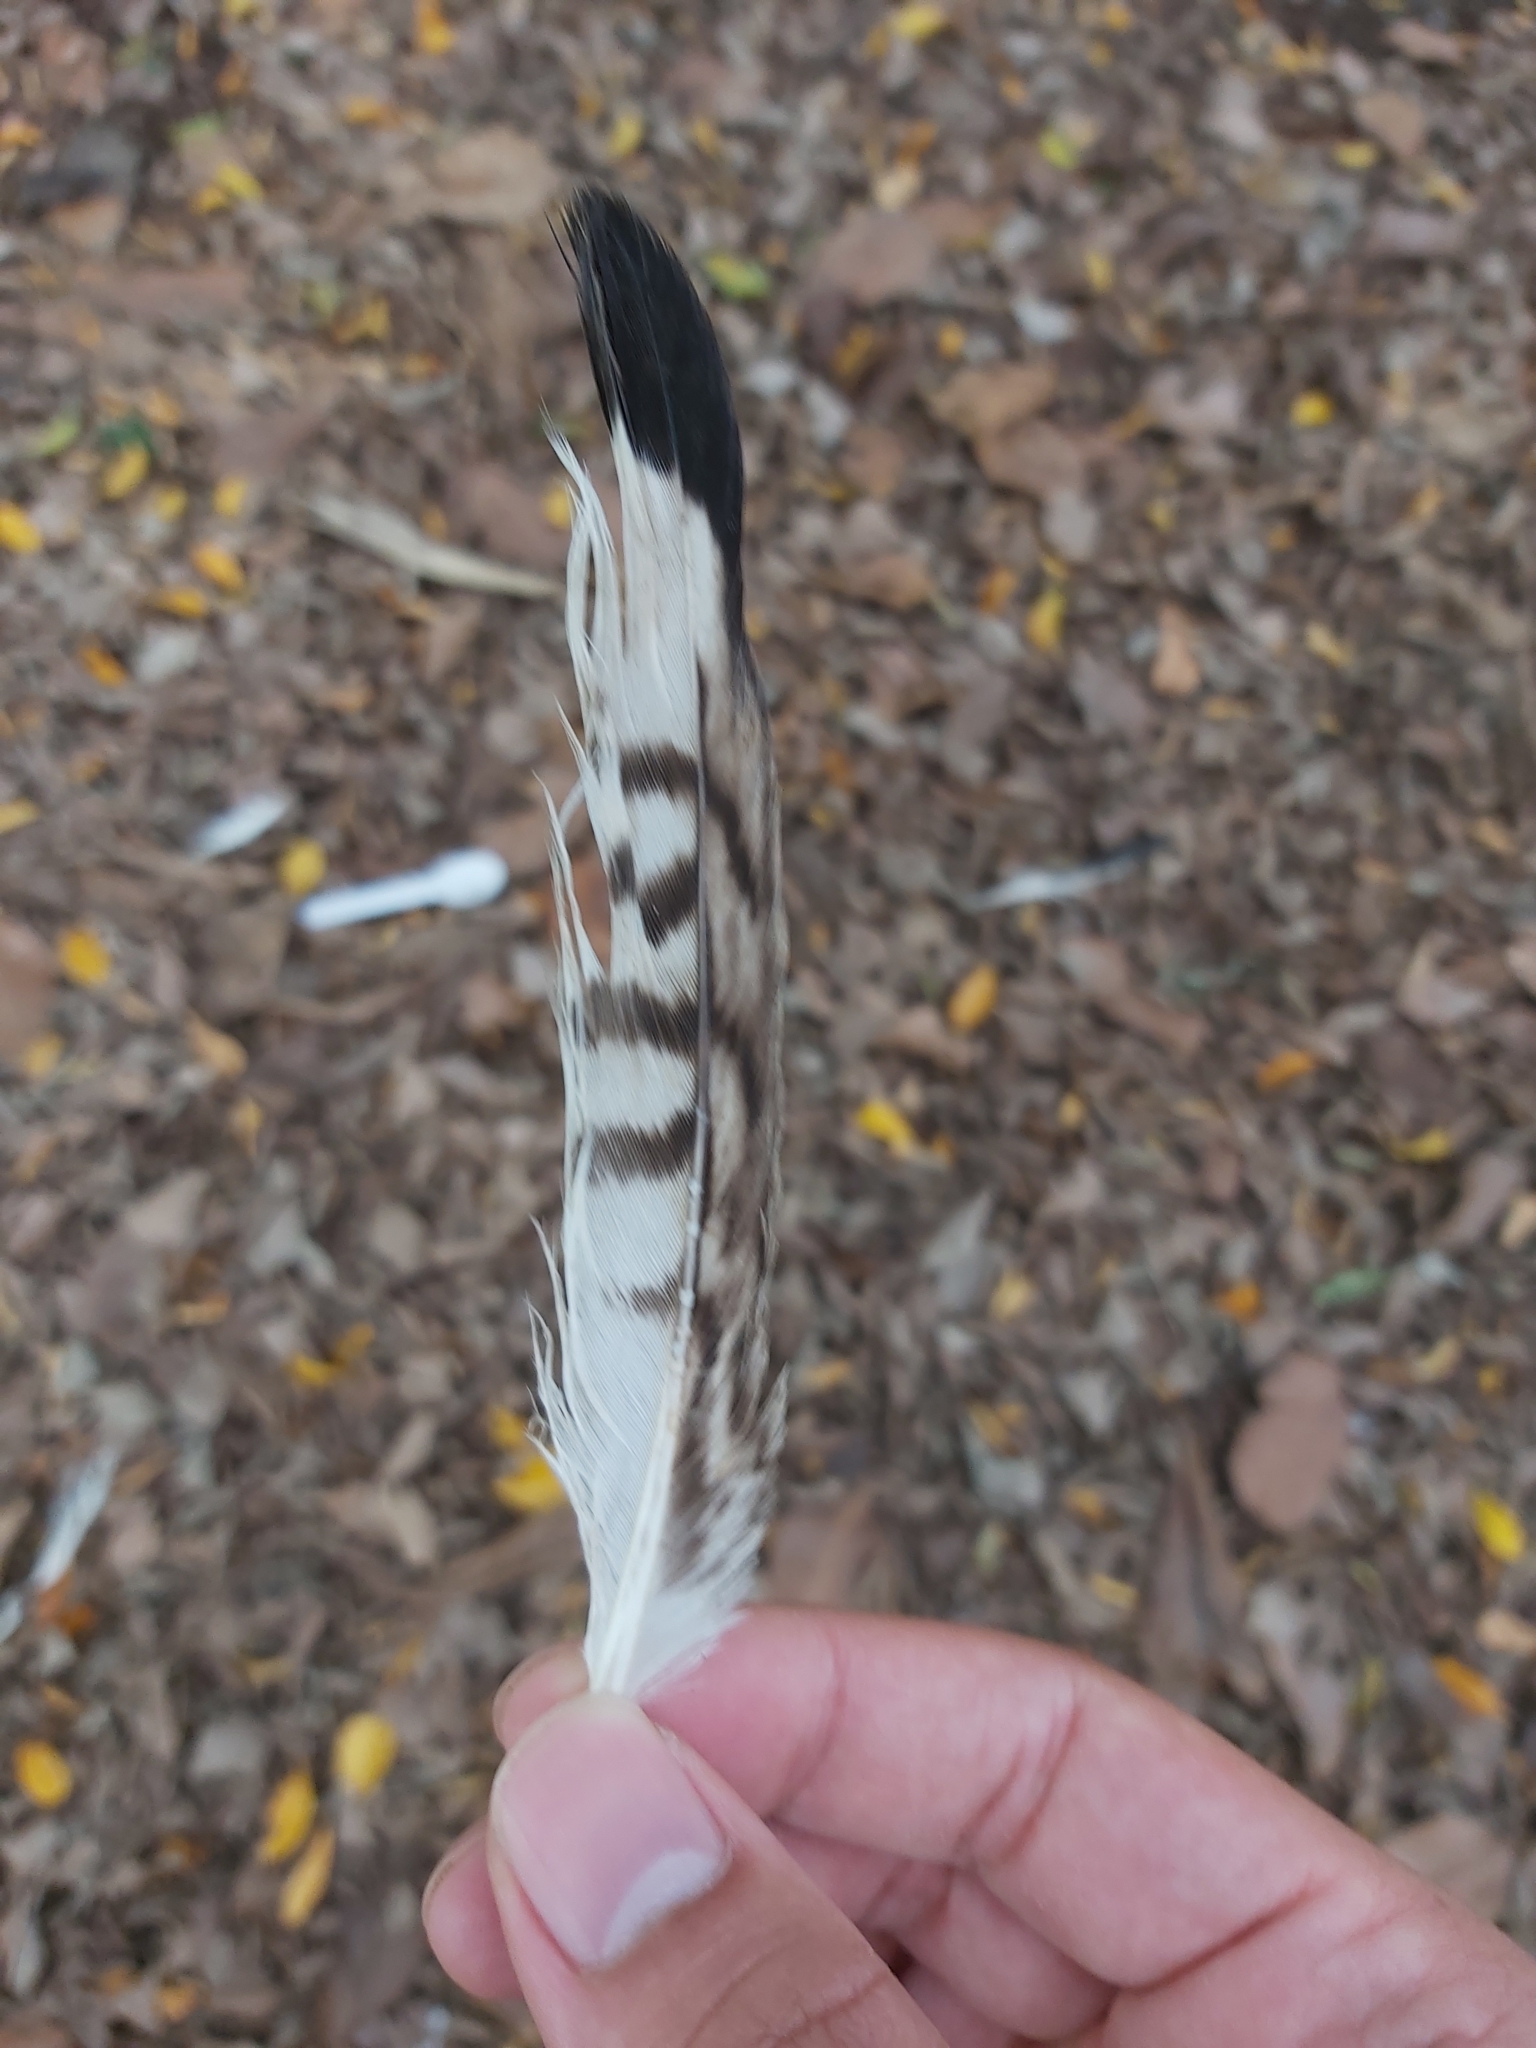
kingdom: Animalia
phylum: Chordata
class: Aves
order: Charadriiformes
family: Burhinidae
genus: Burhinus
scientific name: Burhinus grallarius
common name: Bush stone-curlew
